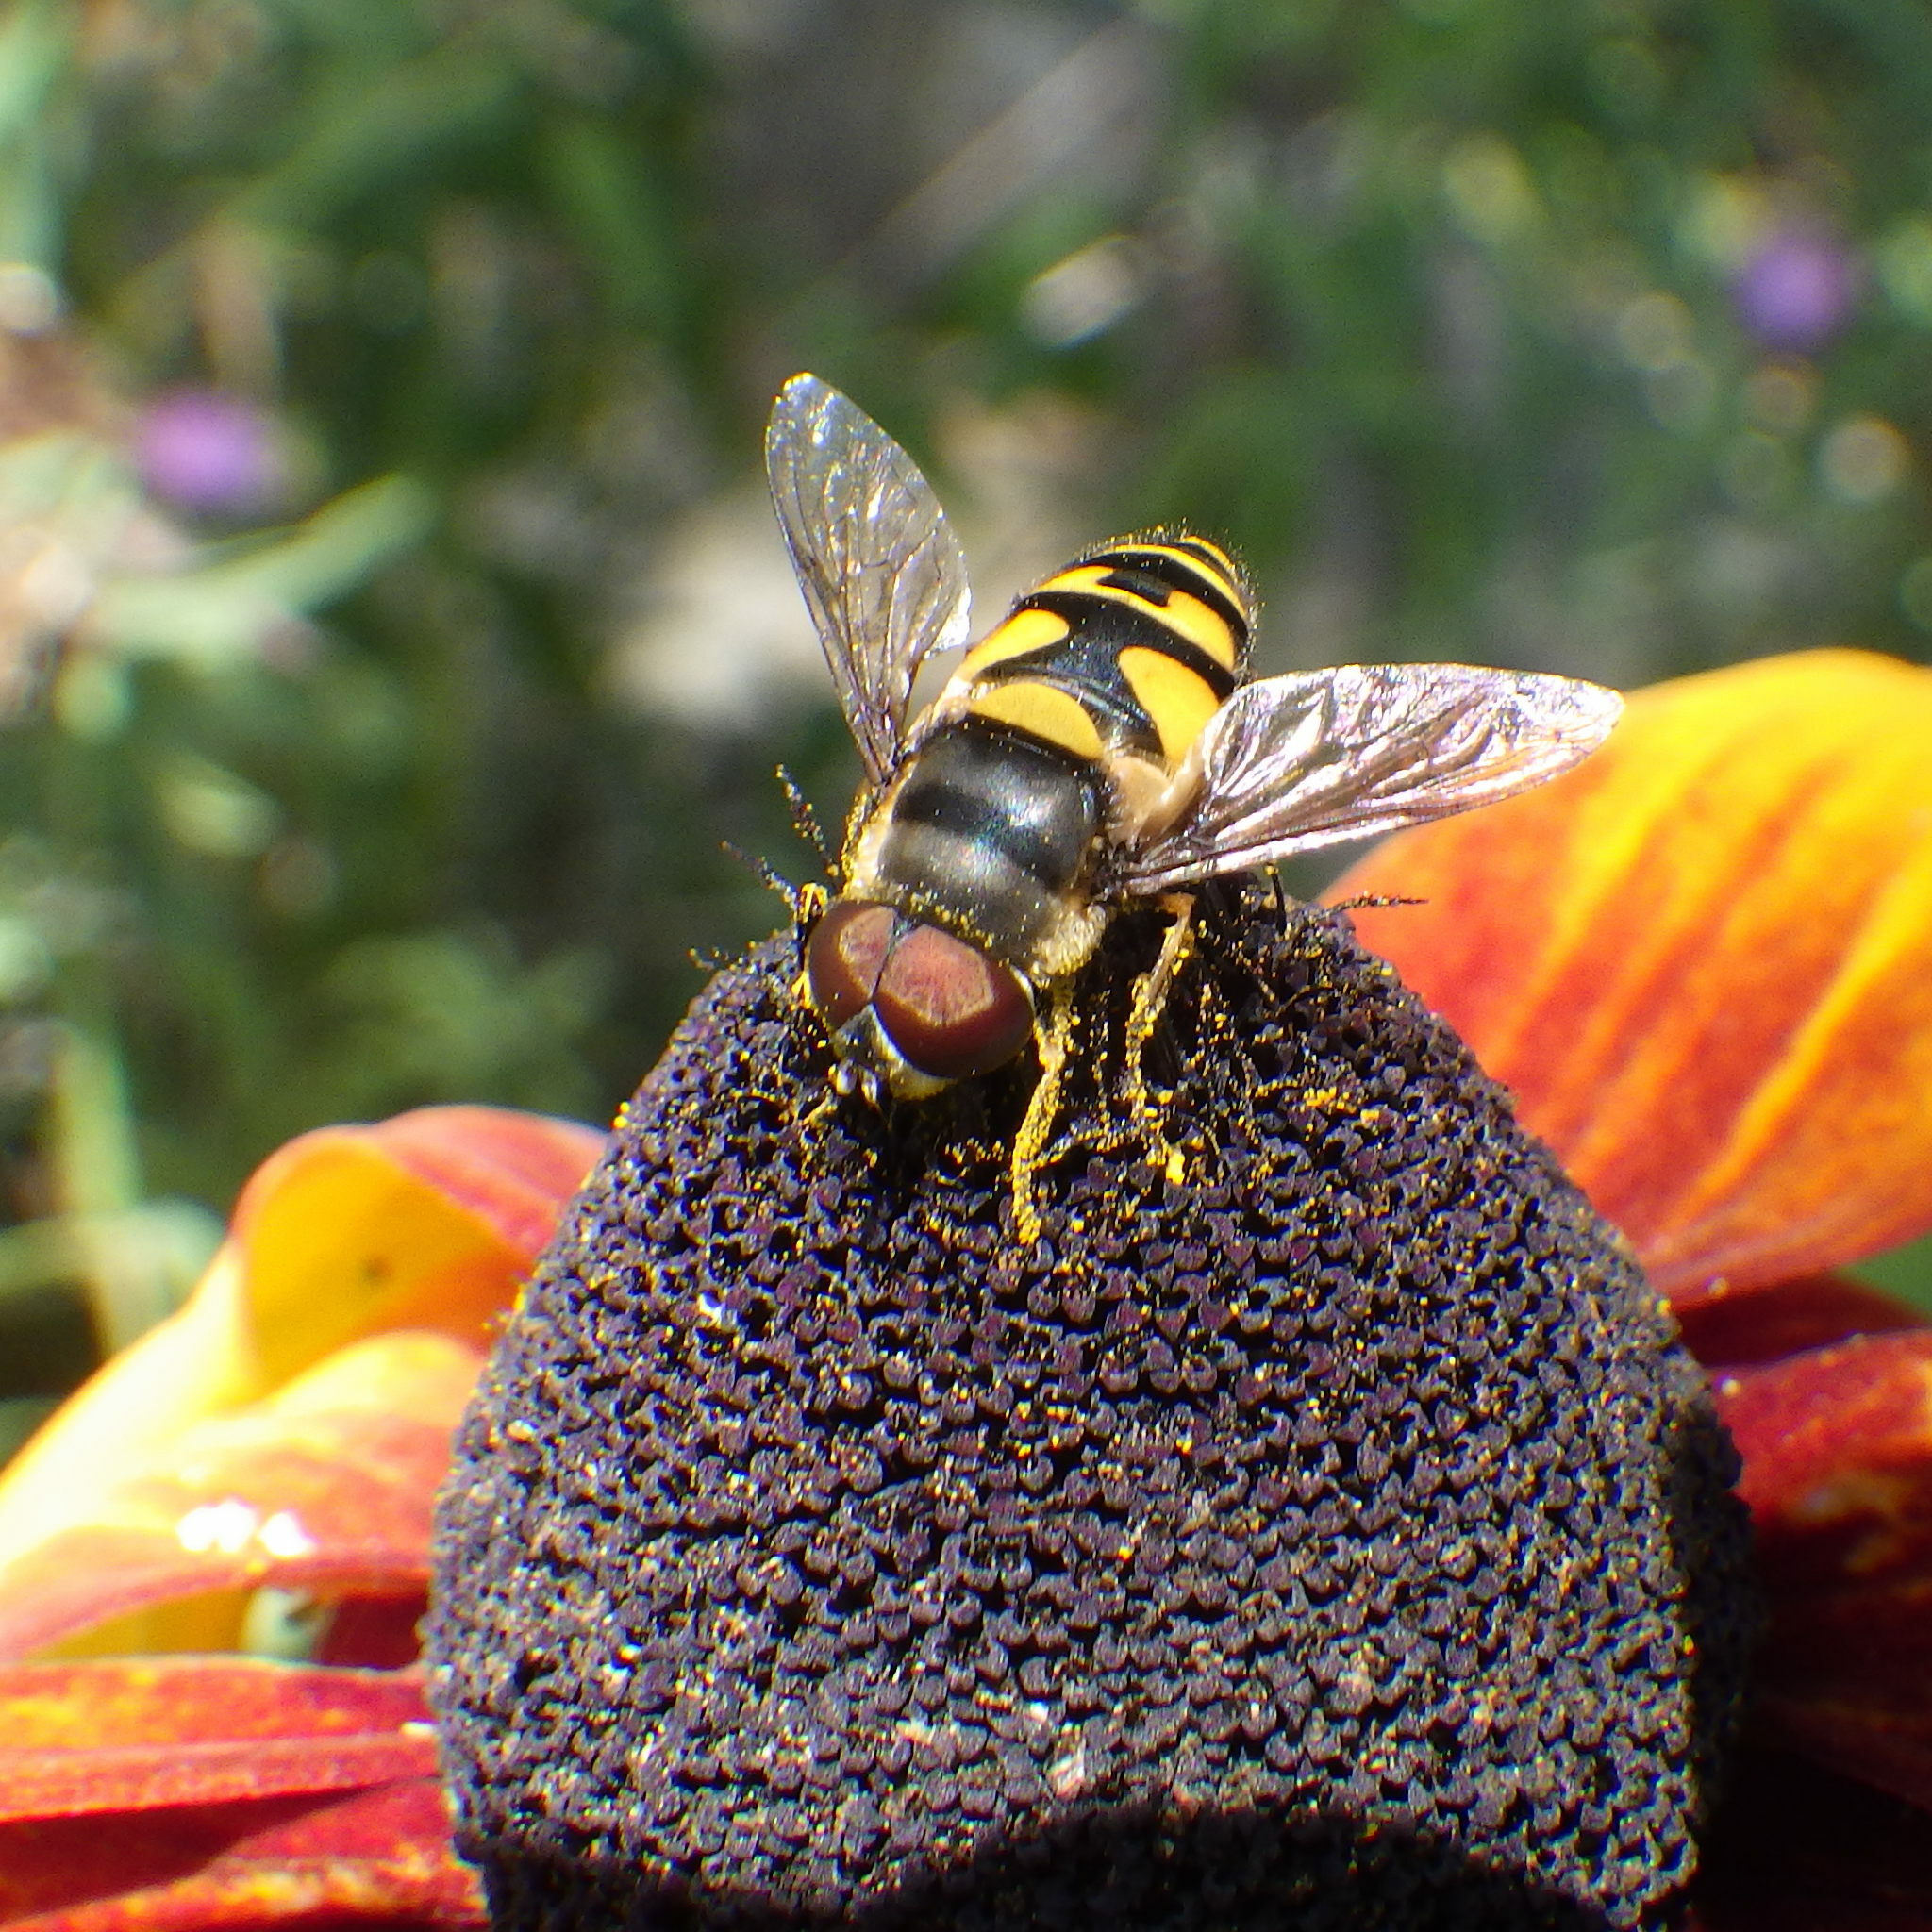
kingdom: Animalia
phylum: Arthropoda
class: Insecta
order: Diptera
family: Syrphidae
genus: Eristalis
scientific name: Eristalis transversa
